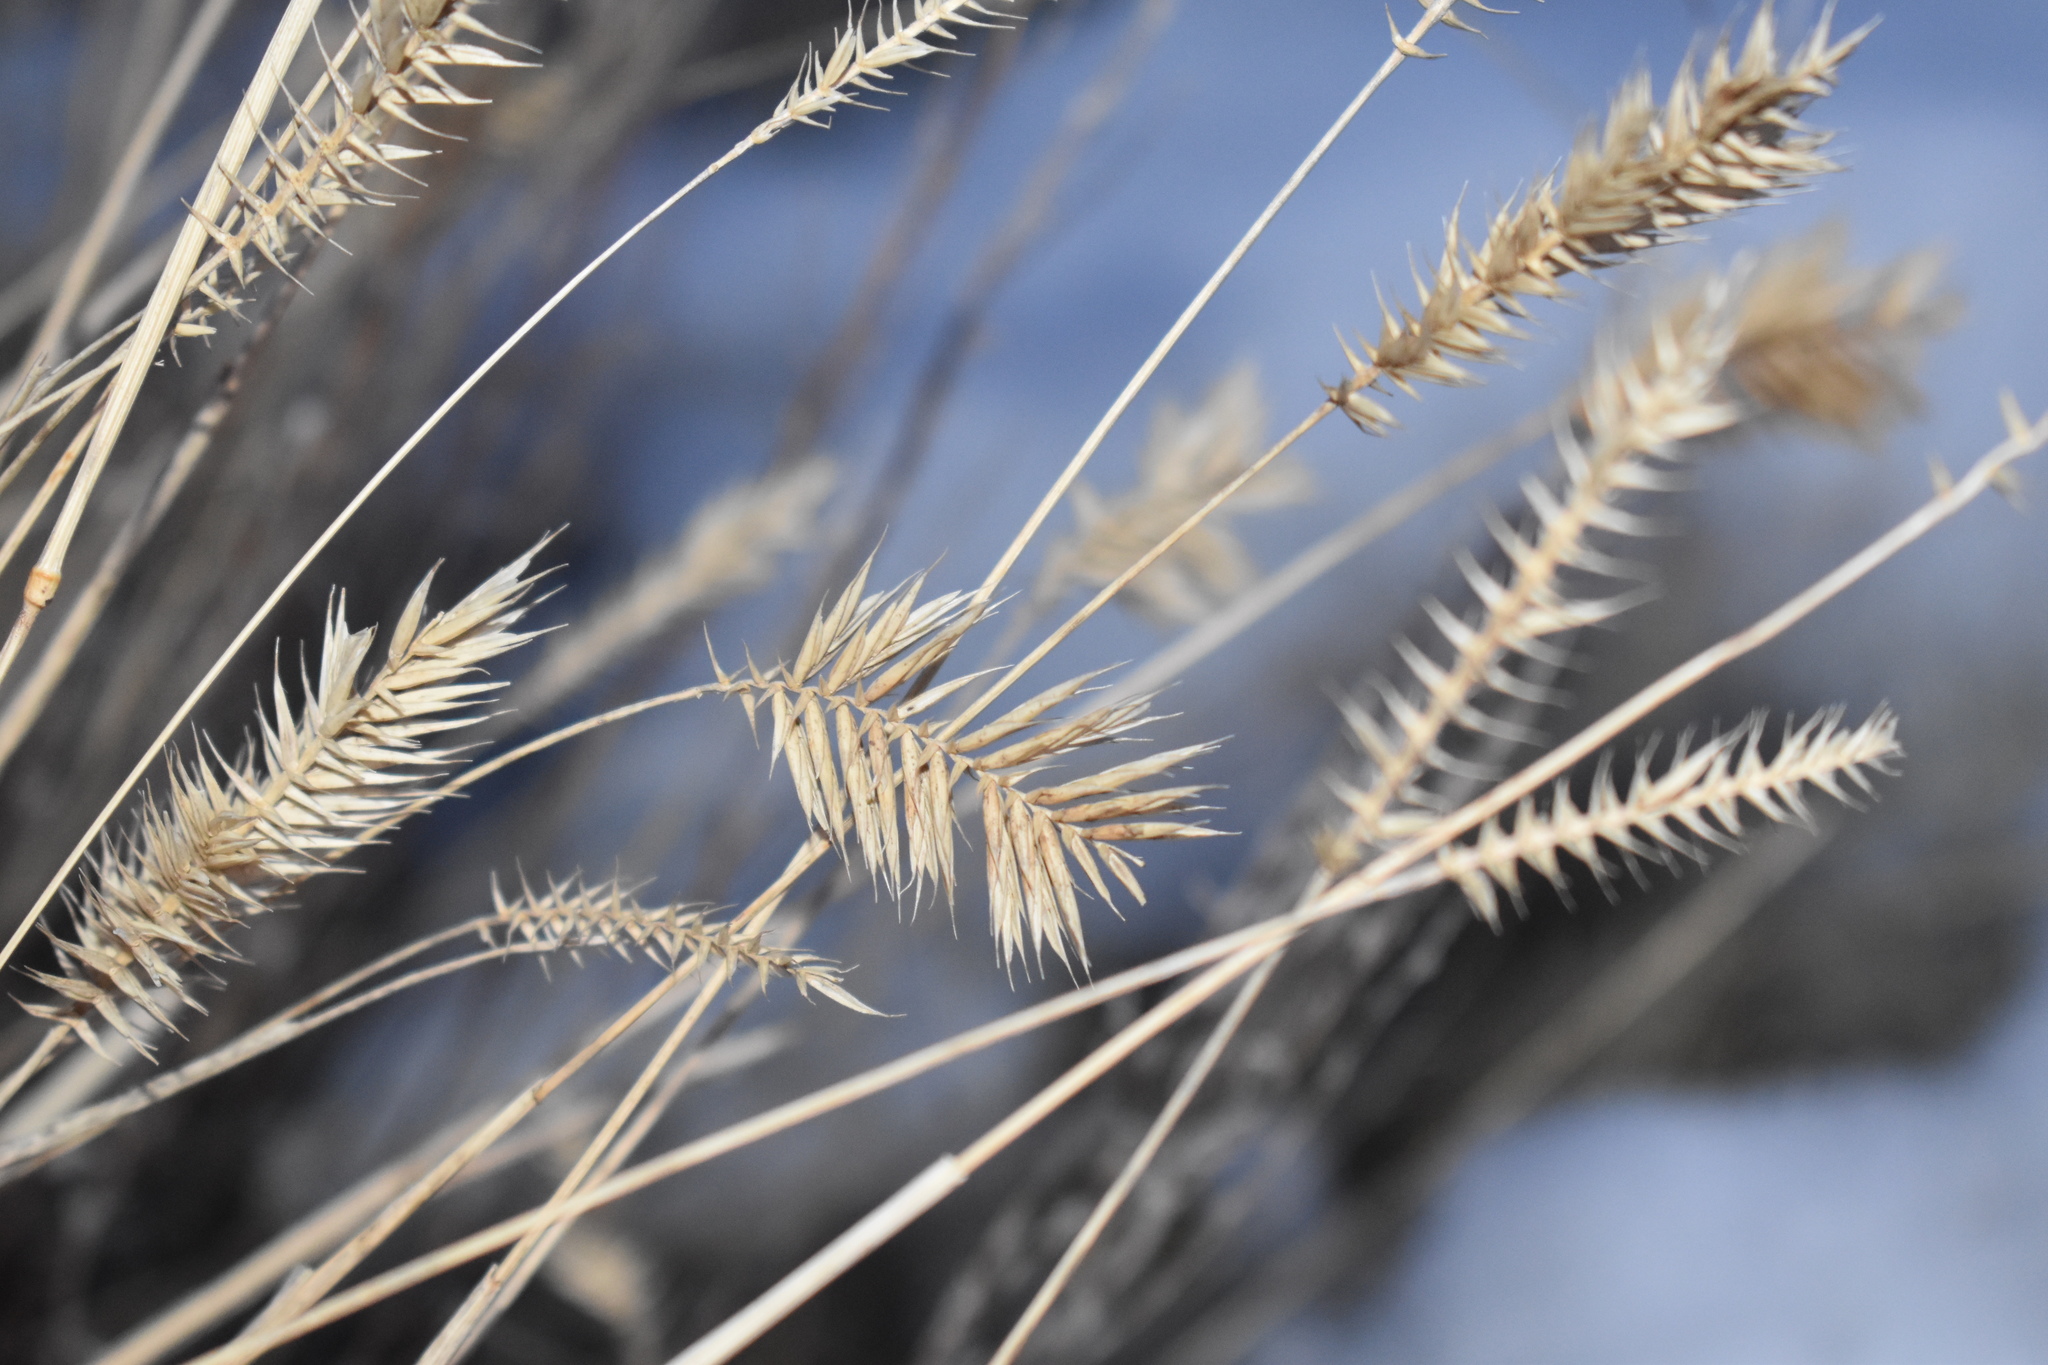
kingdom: Plantae
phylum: Tracheophyta
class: Liliopsida
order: Poales
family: Poaceae
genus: Agropyron
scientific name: Agropyron cristatum
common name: Crested wheatgrass
